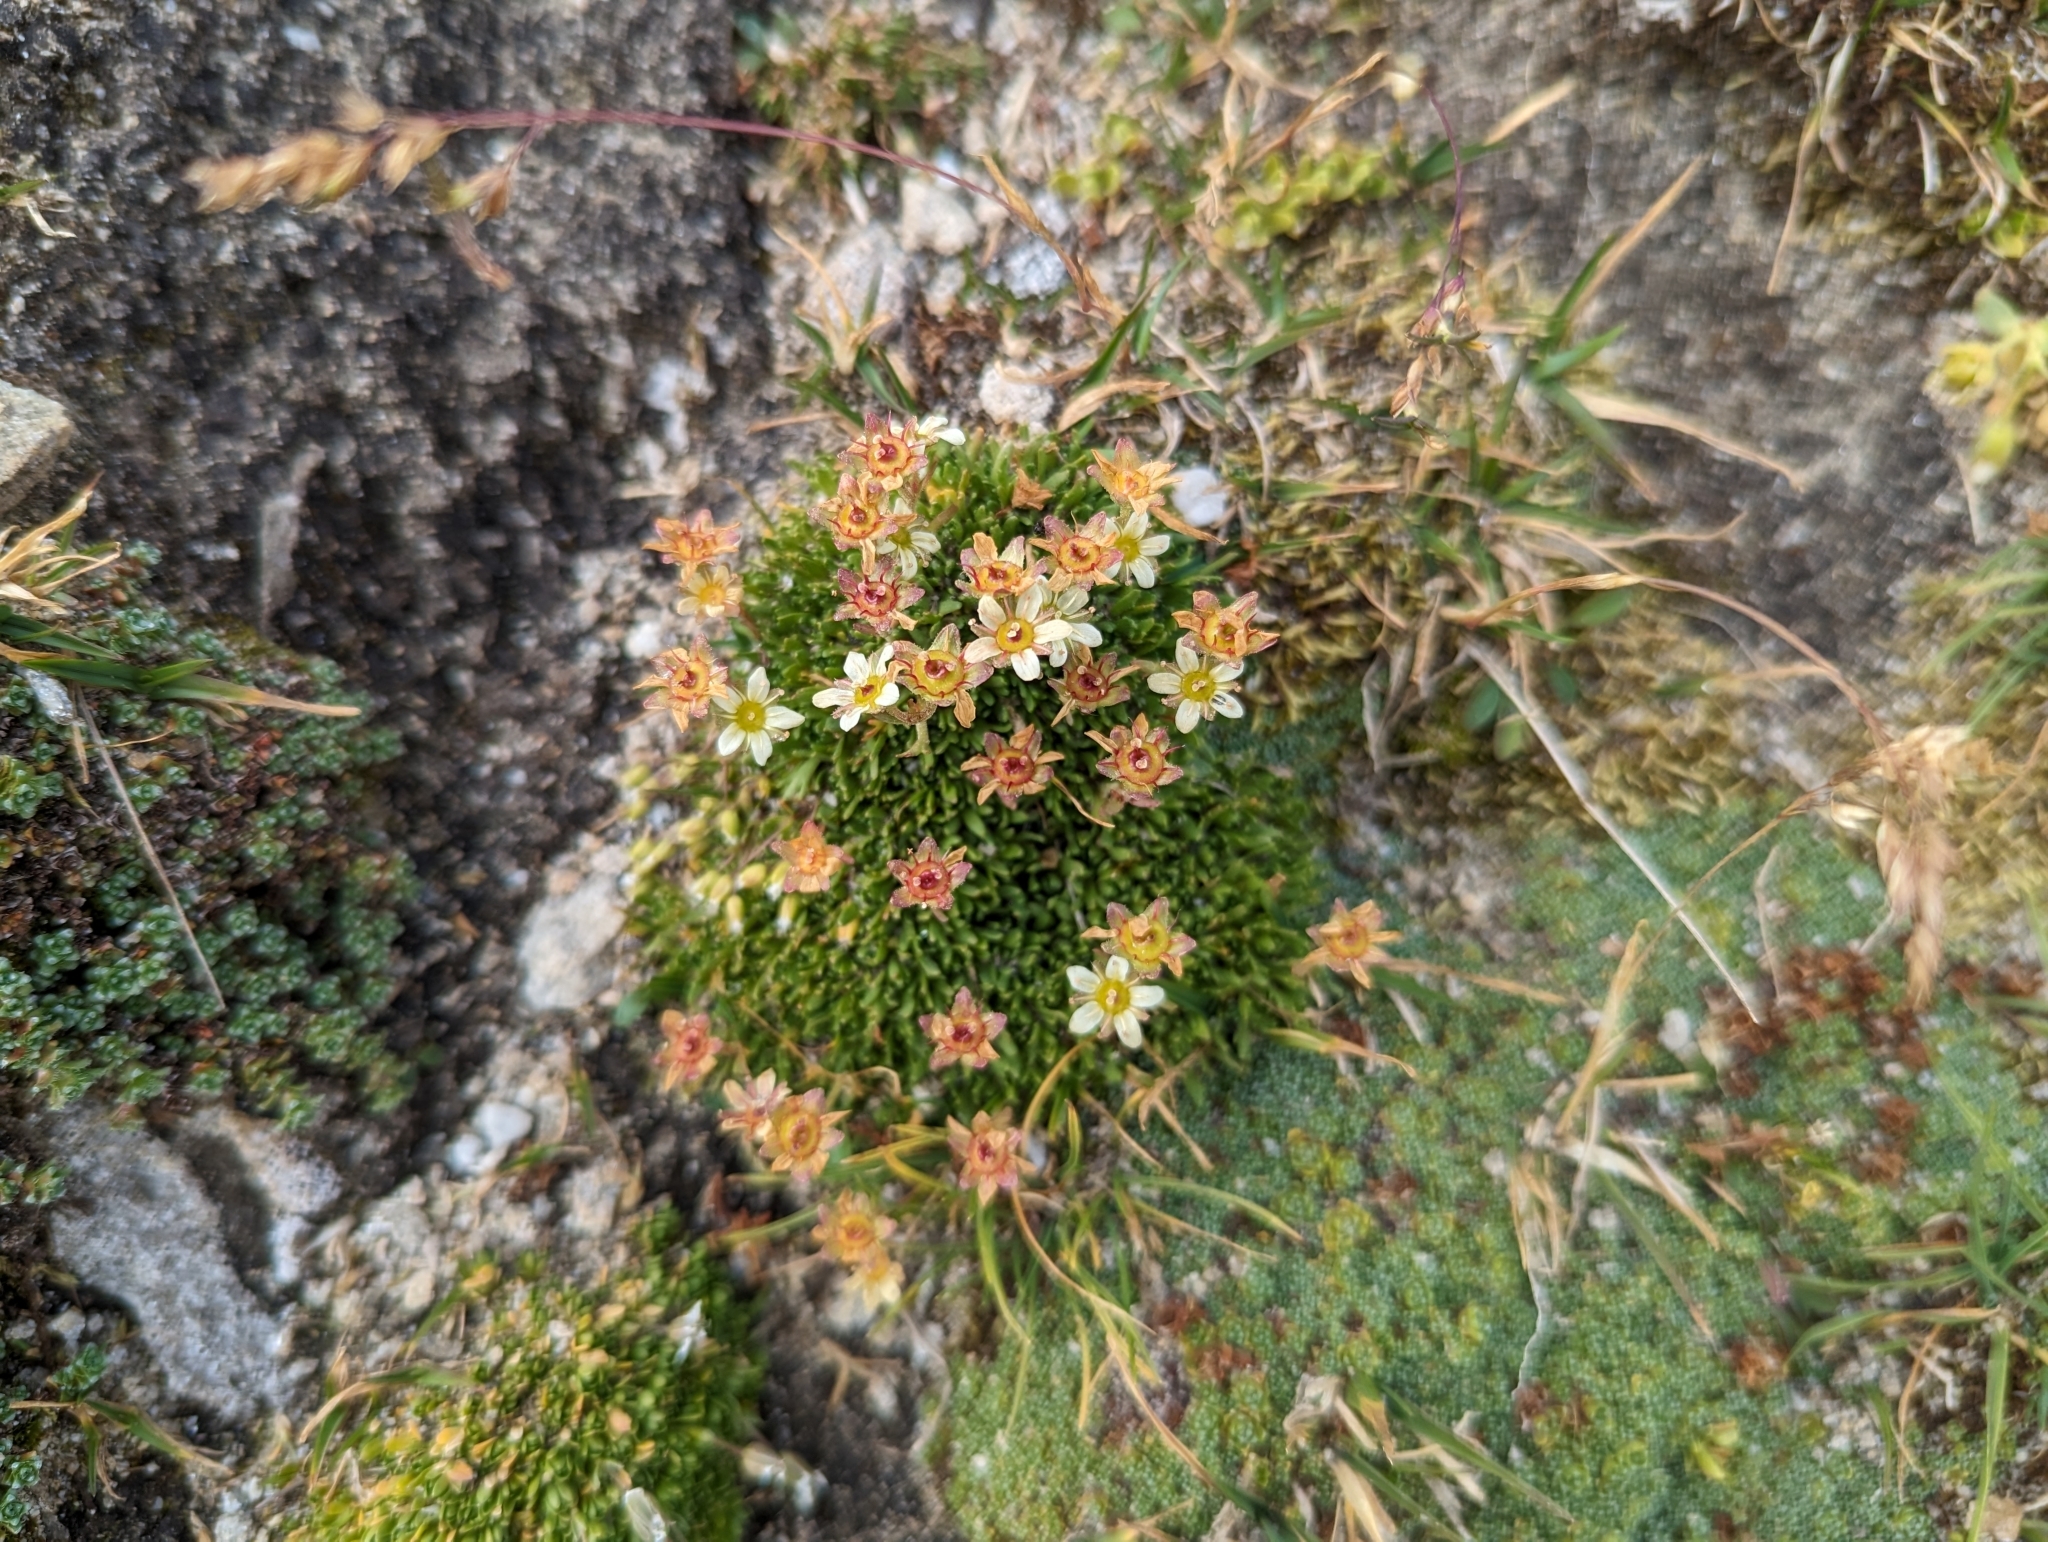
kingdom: Plantae
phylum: Tracheophyta
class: Magnoliopsida
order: Saxifragales
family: Saxifragaceae
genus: Saxifraga
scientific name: Saxifraga moschata
